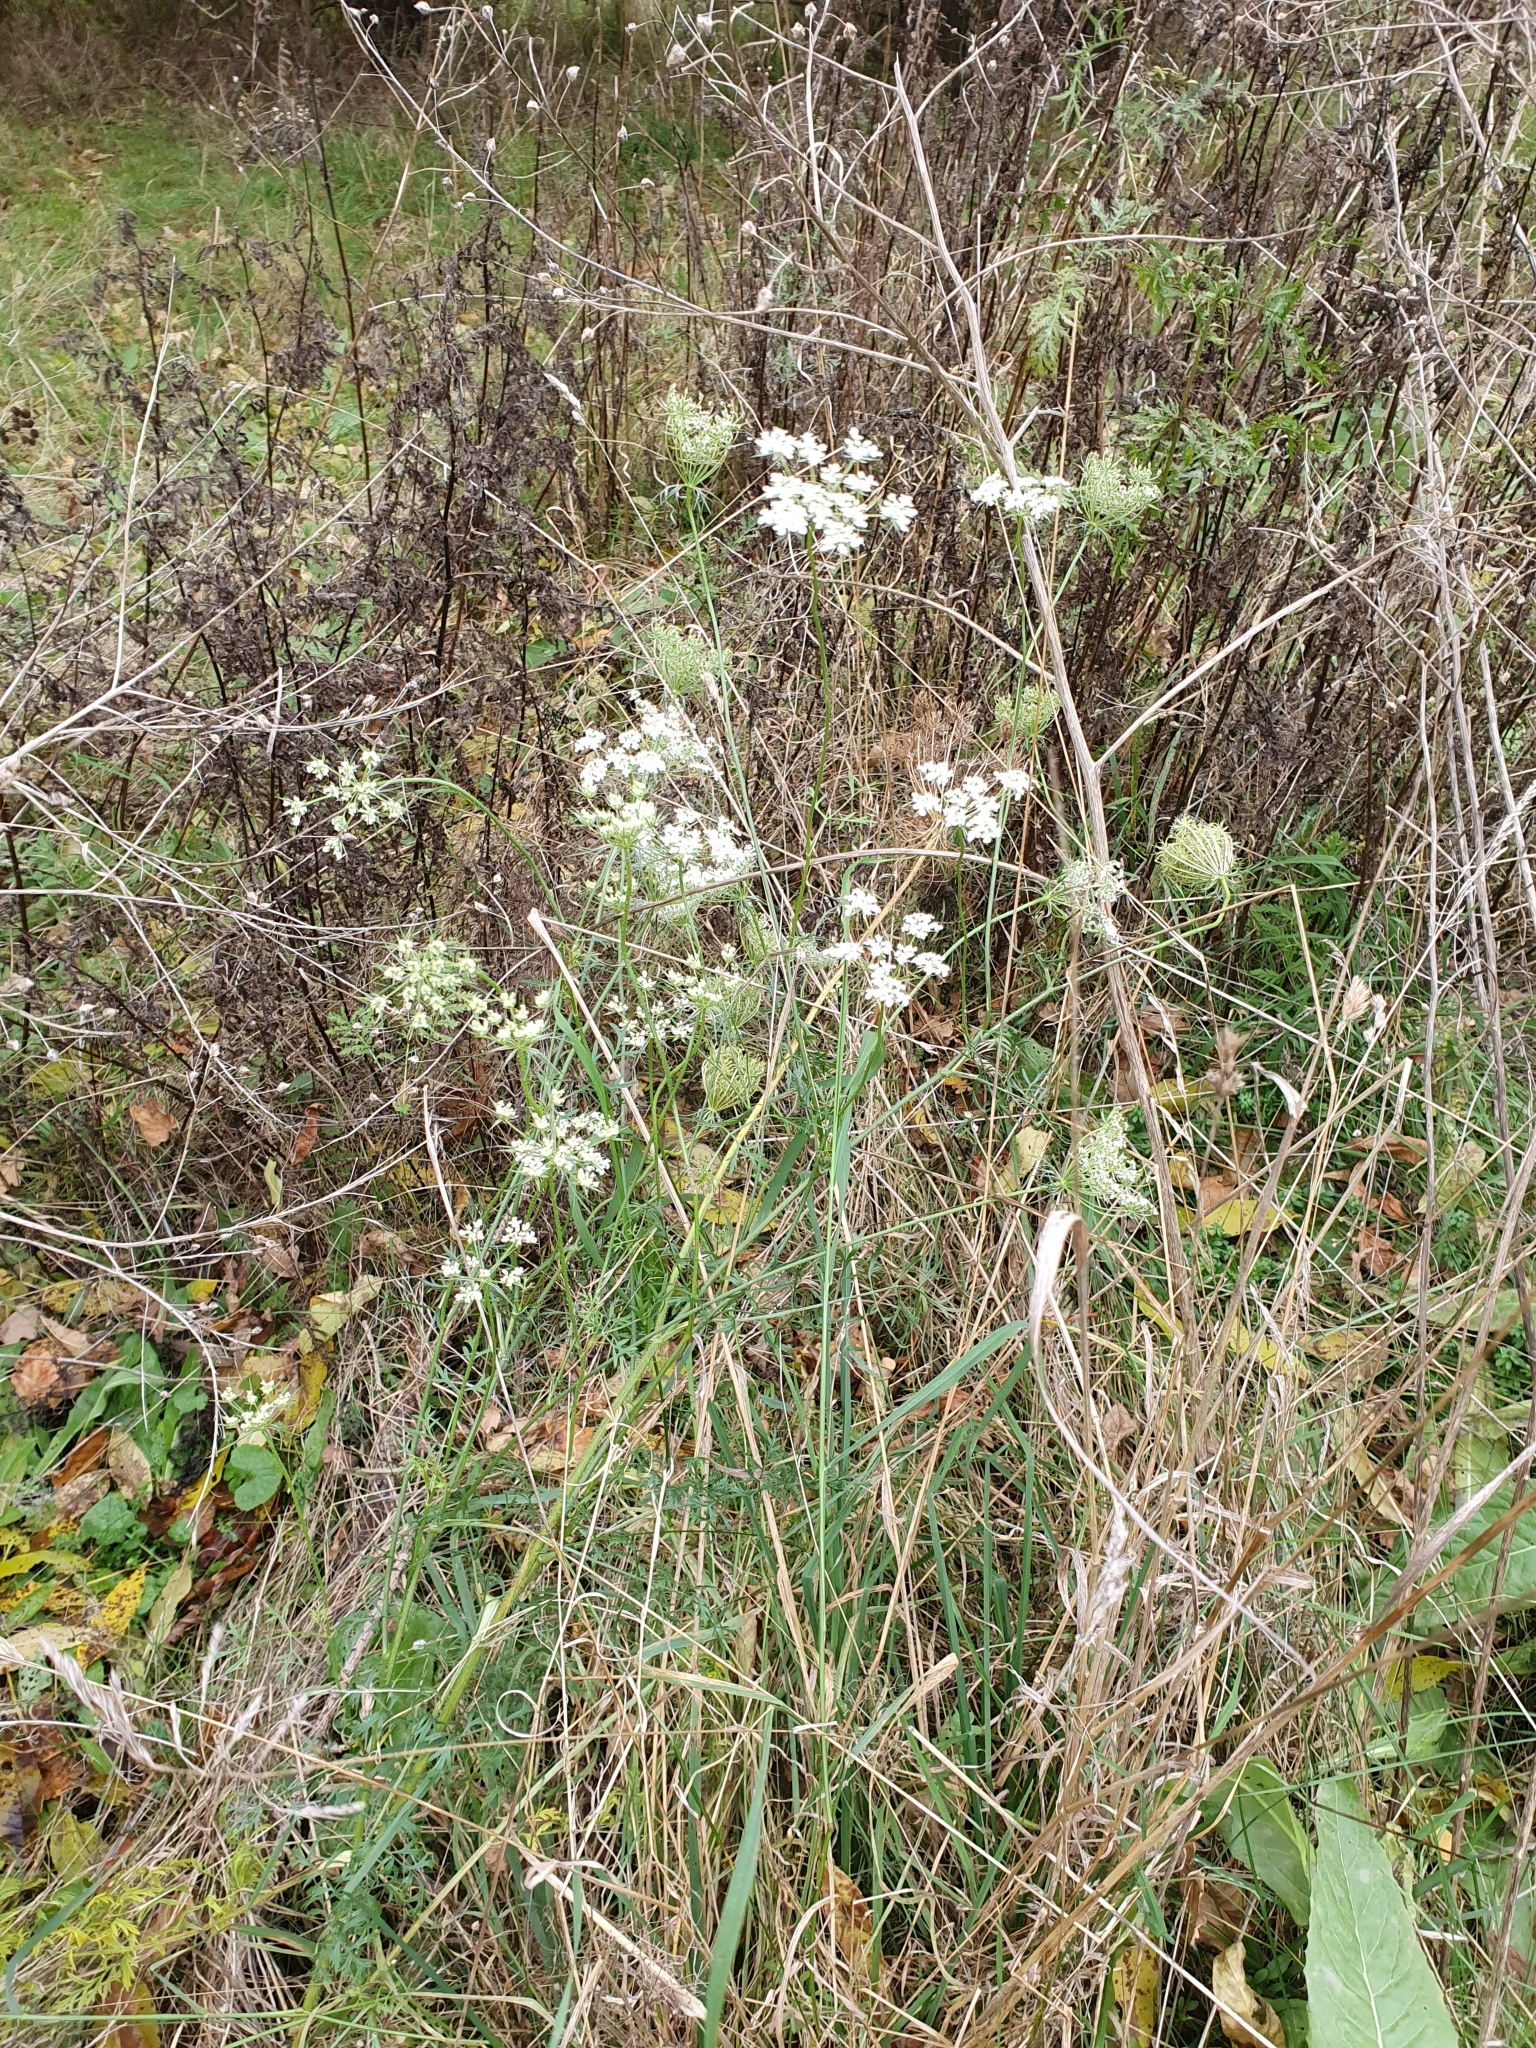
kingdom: Plantae
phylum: Tracheophyta
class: Magnoliopsida
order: Apiales
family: Apiaceae
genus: Daucus
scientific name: Daucus carota
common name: Wild carrot
